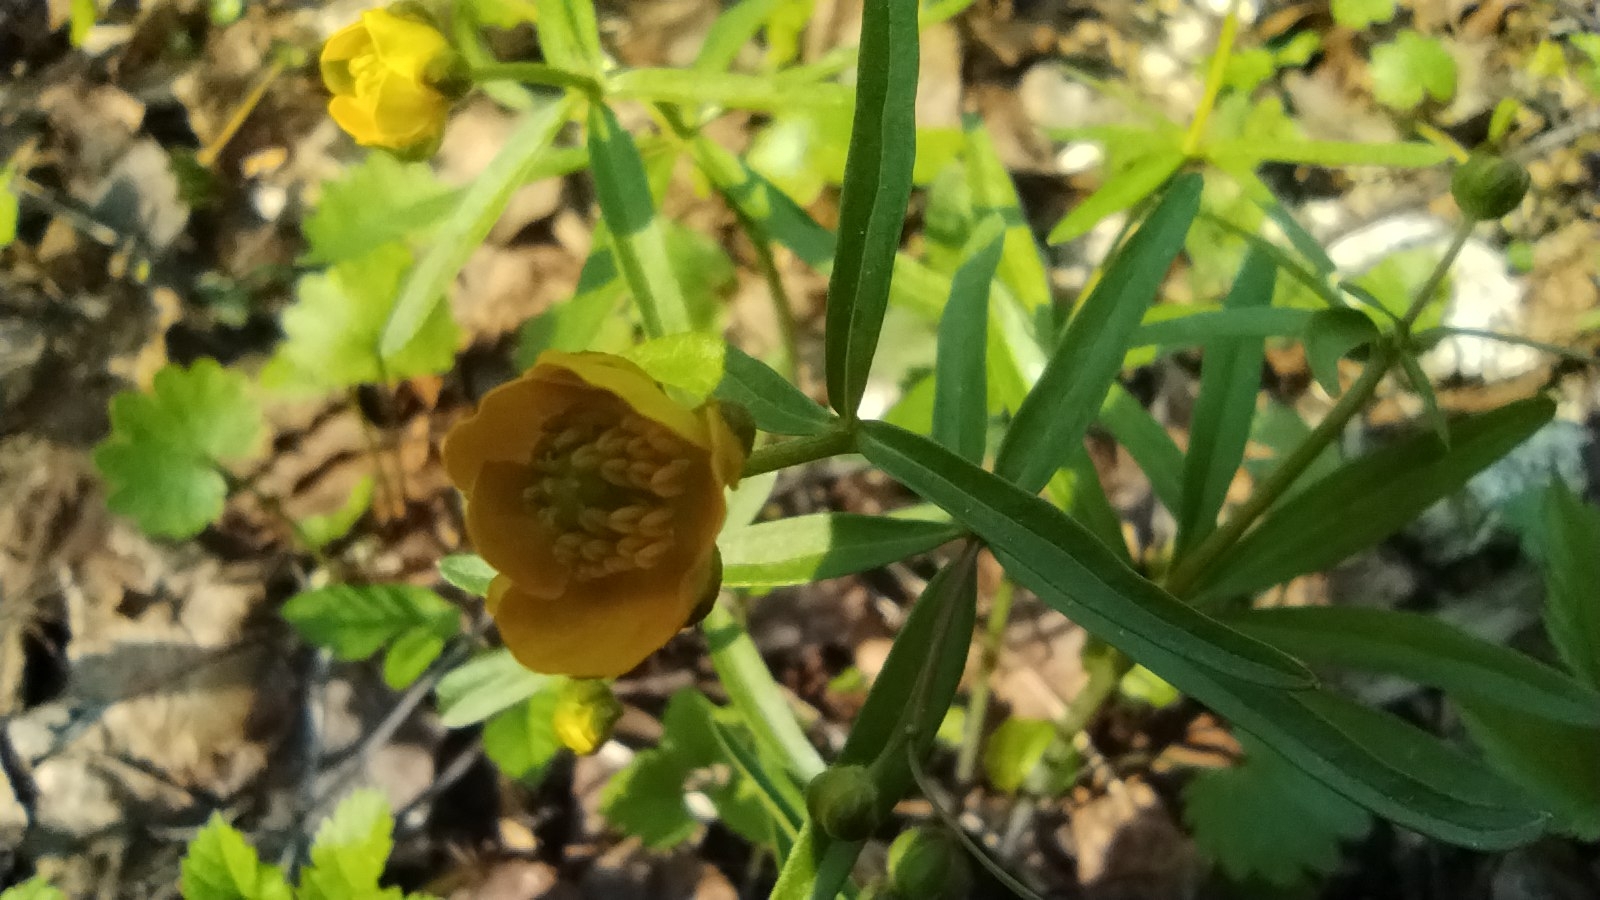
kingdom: Plantae
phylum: Tracheophyta
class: Magnoliopsida
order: Ranunculales
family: Ranunculaceae
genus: Ranunculus
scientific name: Ranunculus monophyllus
